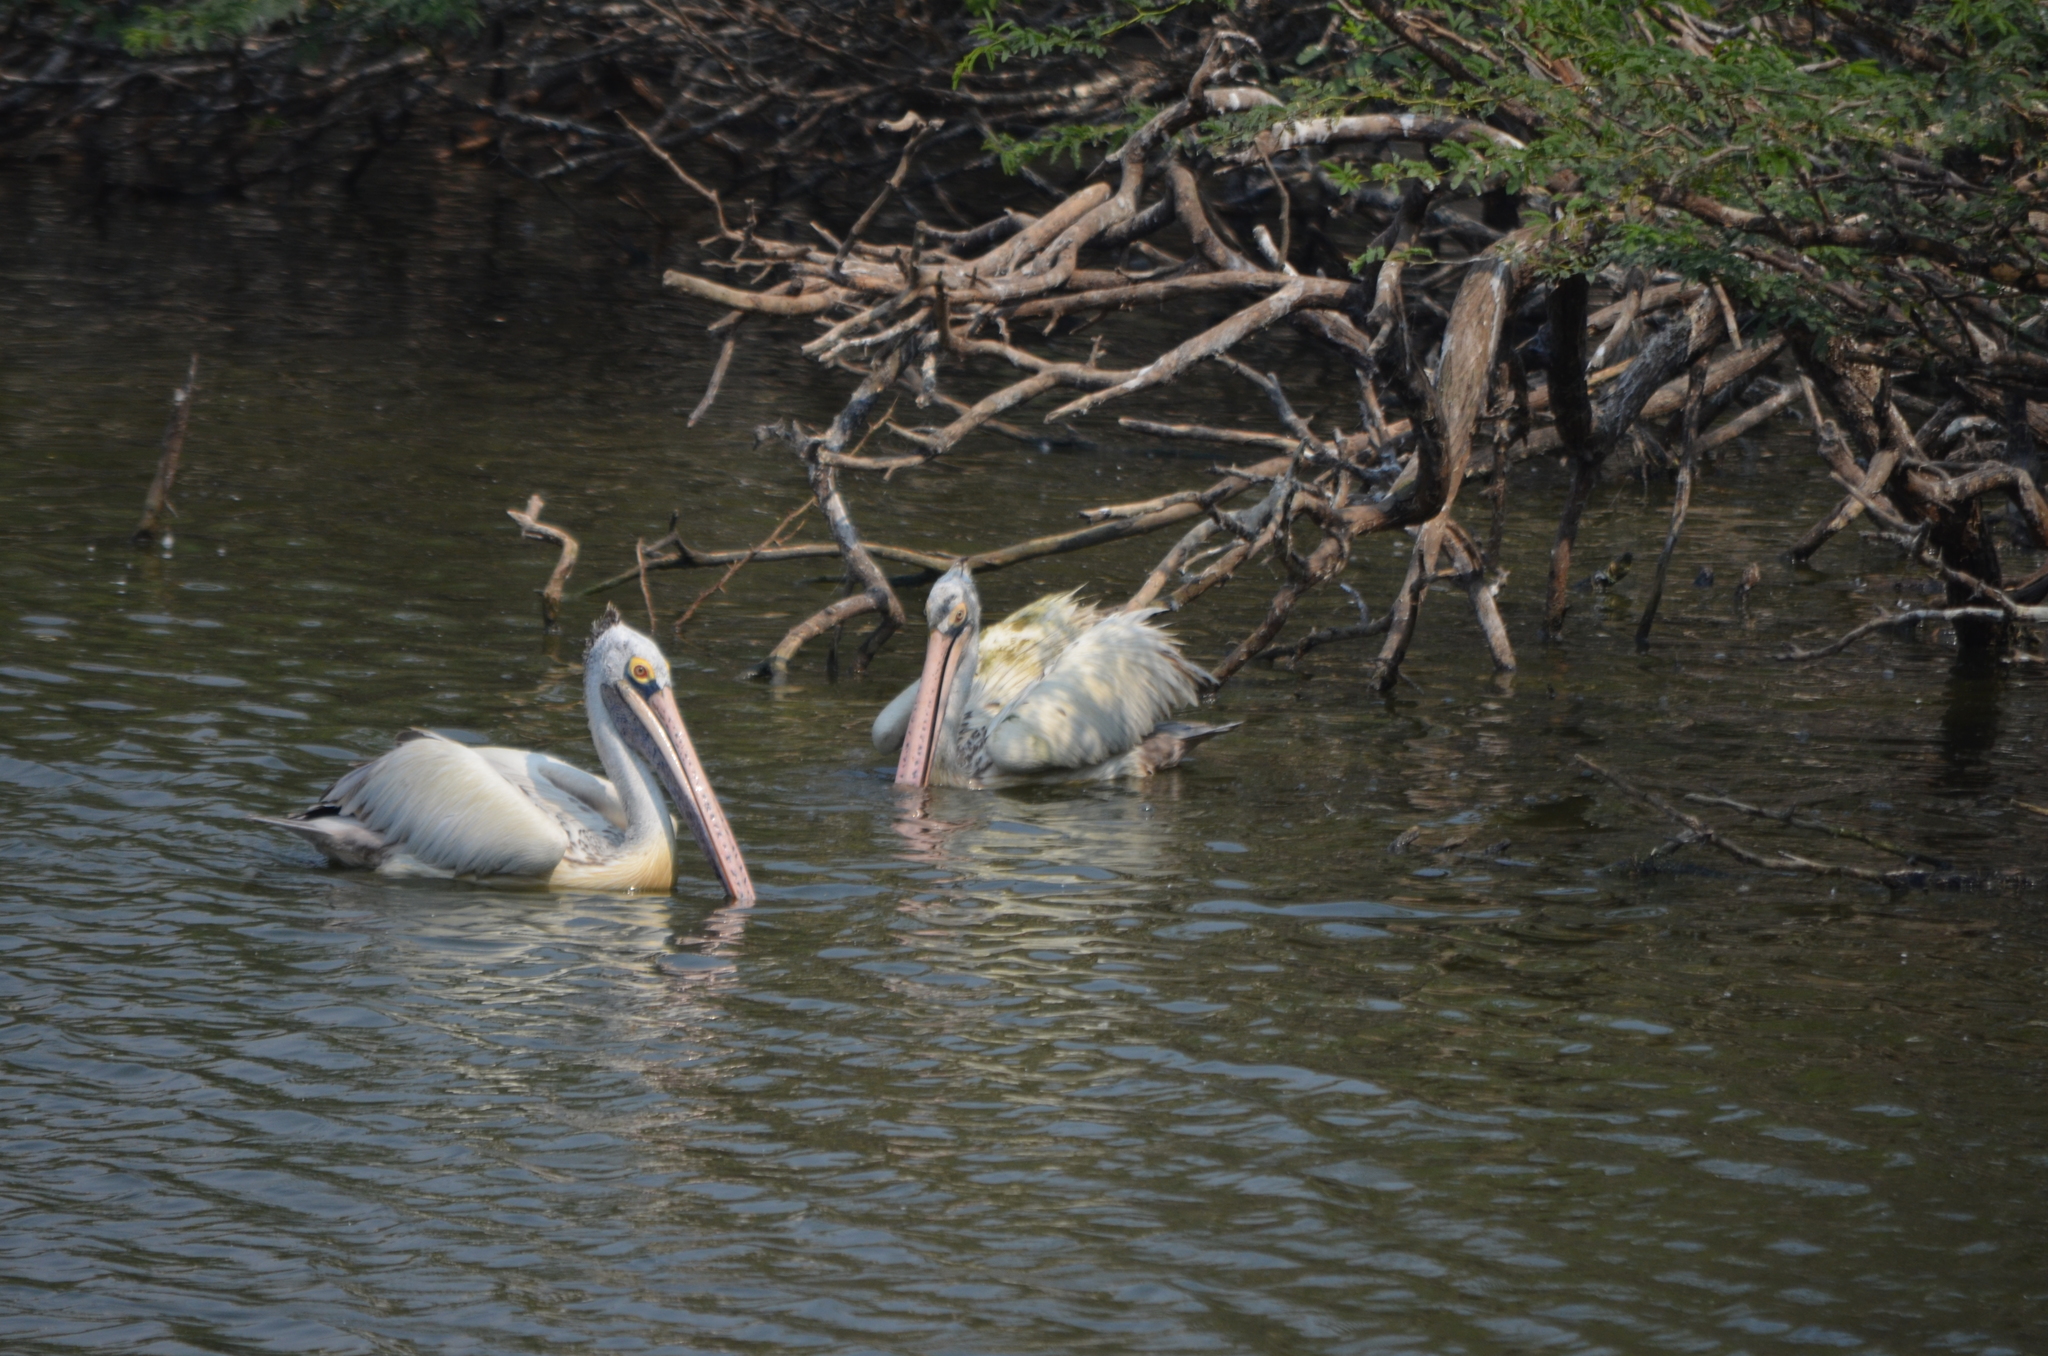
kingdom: Animalia
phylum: Chordata
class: Aves
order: Pelecaniformes
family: Pelecanidae
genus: Pelecanus
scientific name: Pelecanus philippensis
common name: Spot-billed pelican
